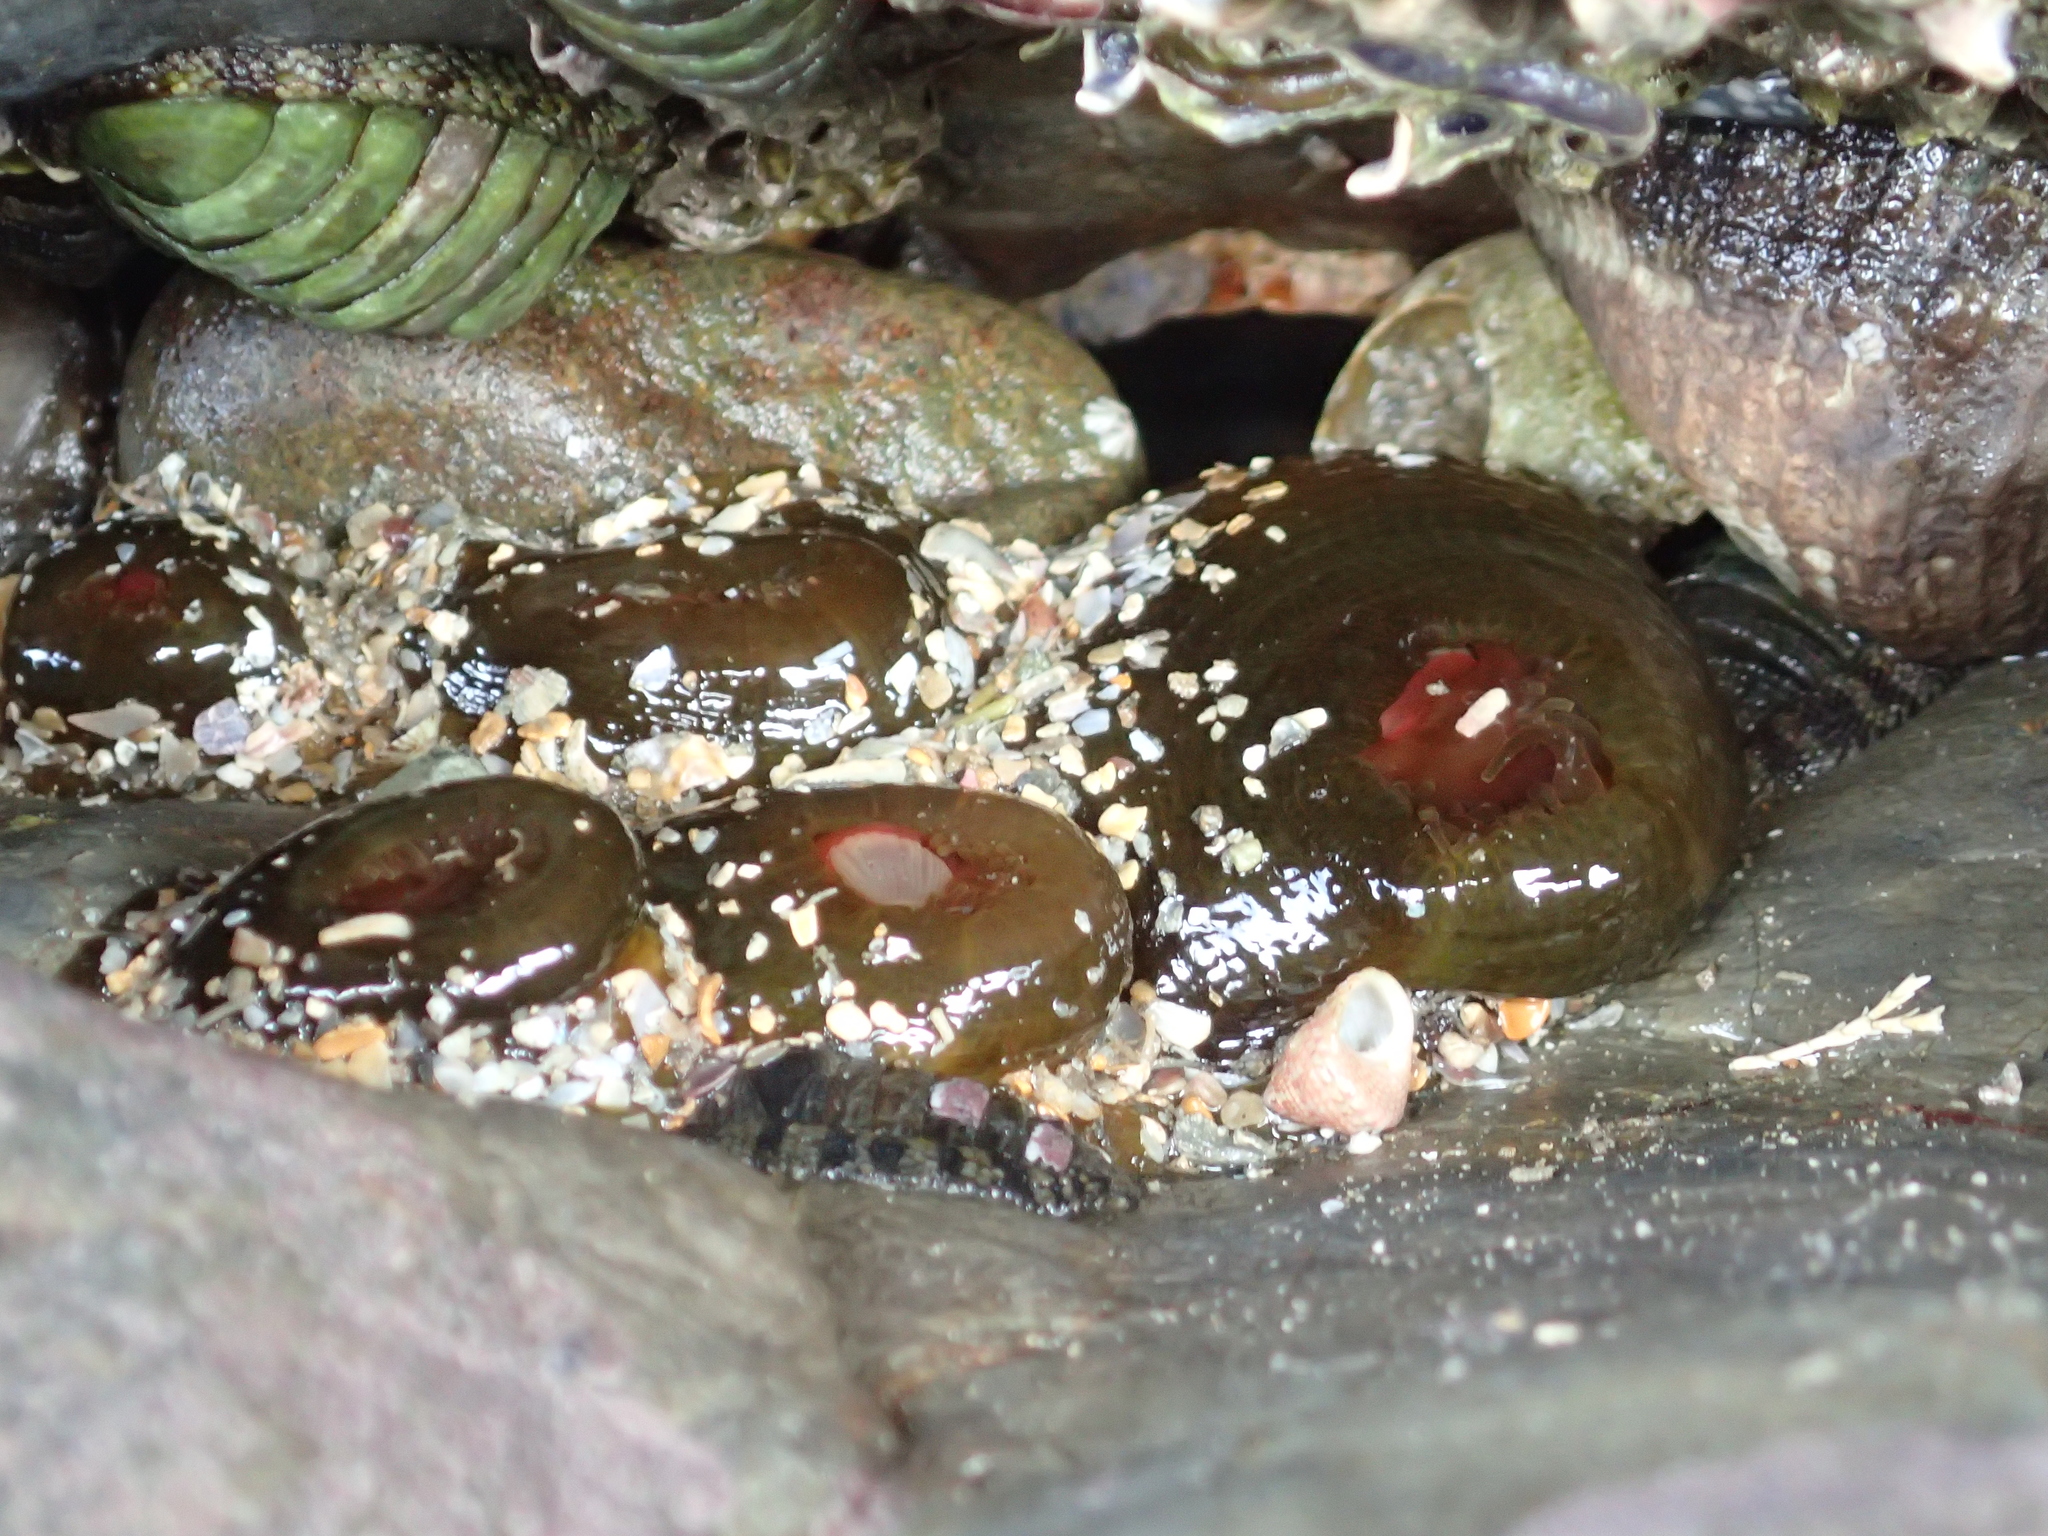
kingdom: Animalia
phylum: Cnidaria
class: Anthozoa
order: Actiniaria
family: Actiniidae
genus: Isactinia
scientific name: Isactinia olivacea
